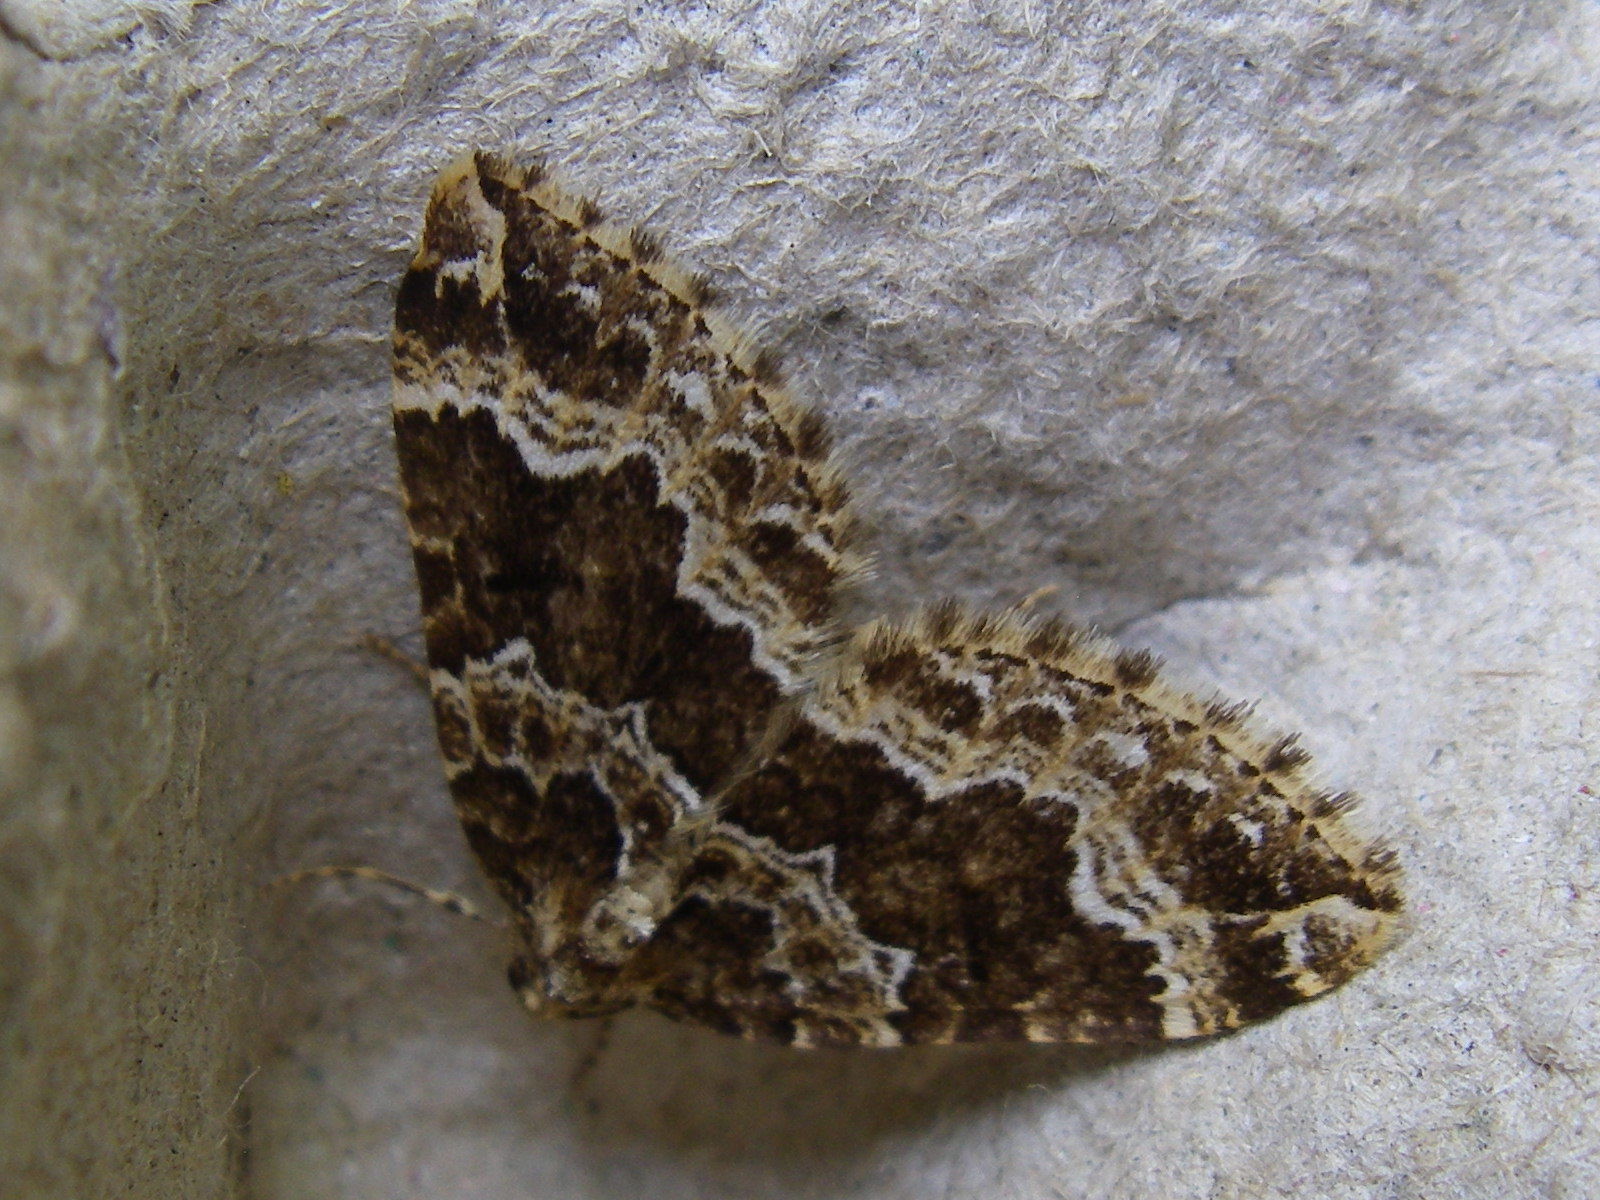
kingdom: Animalia
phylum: Arthropoda
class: Insecta
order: Lepidoptera
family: Geometridae
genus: Lampropteryx
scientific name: Lampropteryx suffumata
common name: Water carpet
